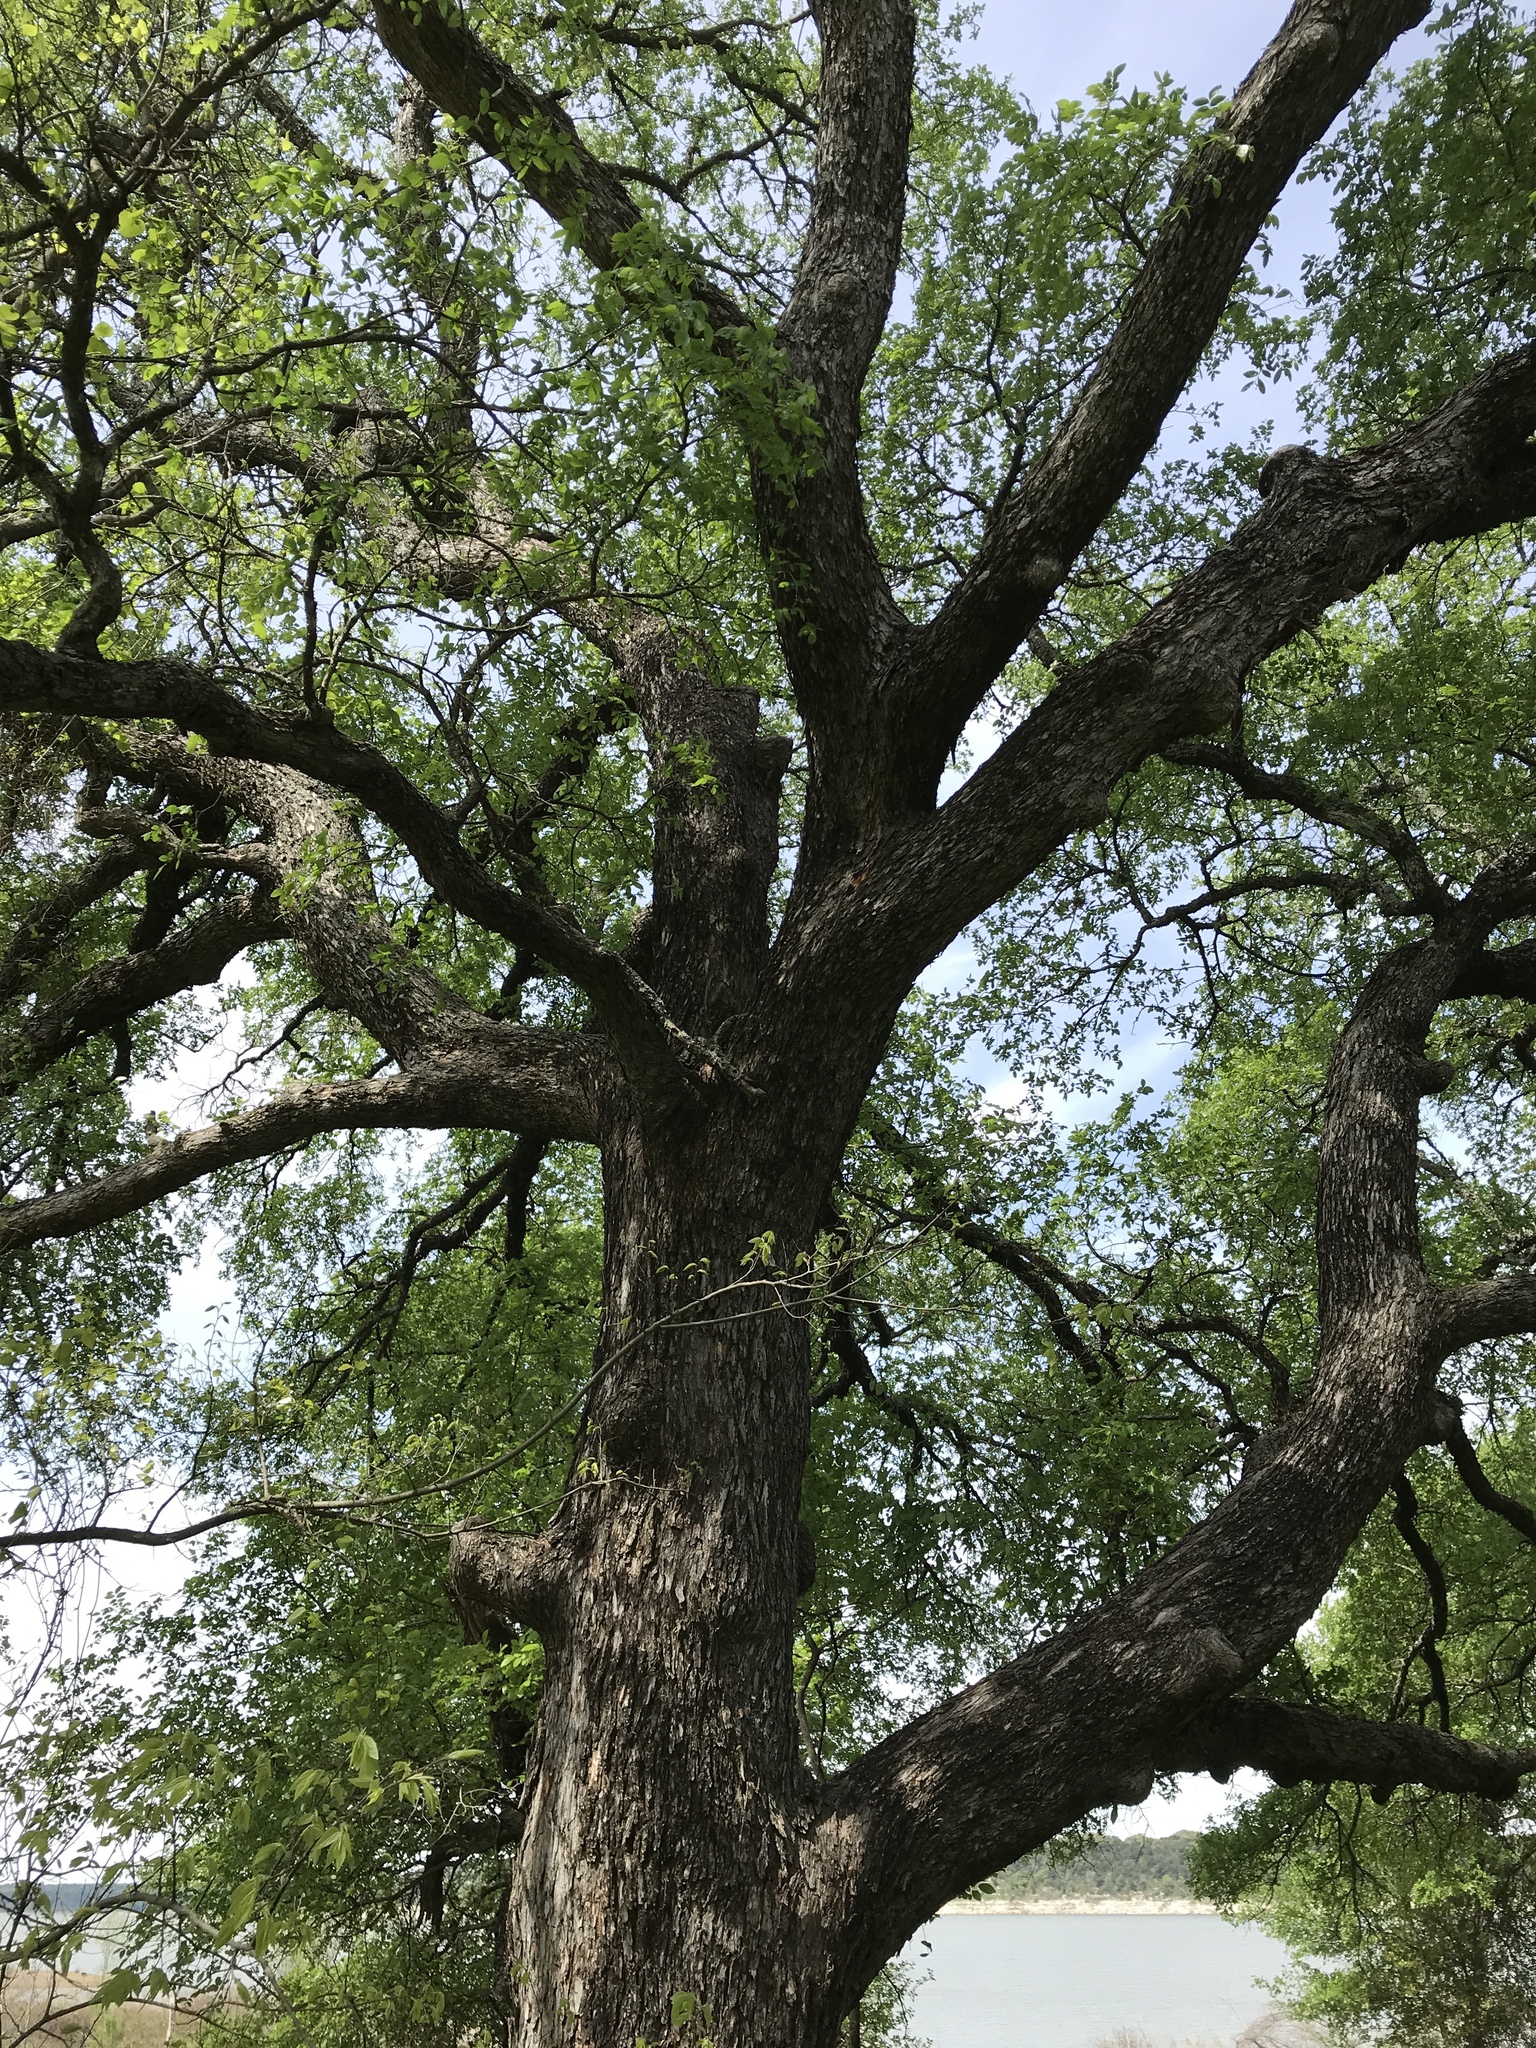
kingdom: Plantae
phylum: Tracheophyta
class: Magnoliopsida
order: Rosales
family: Ulmaceae
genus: Ulmus
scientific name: Ulmus crassifolia
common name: Basket elm
